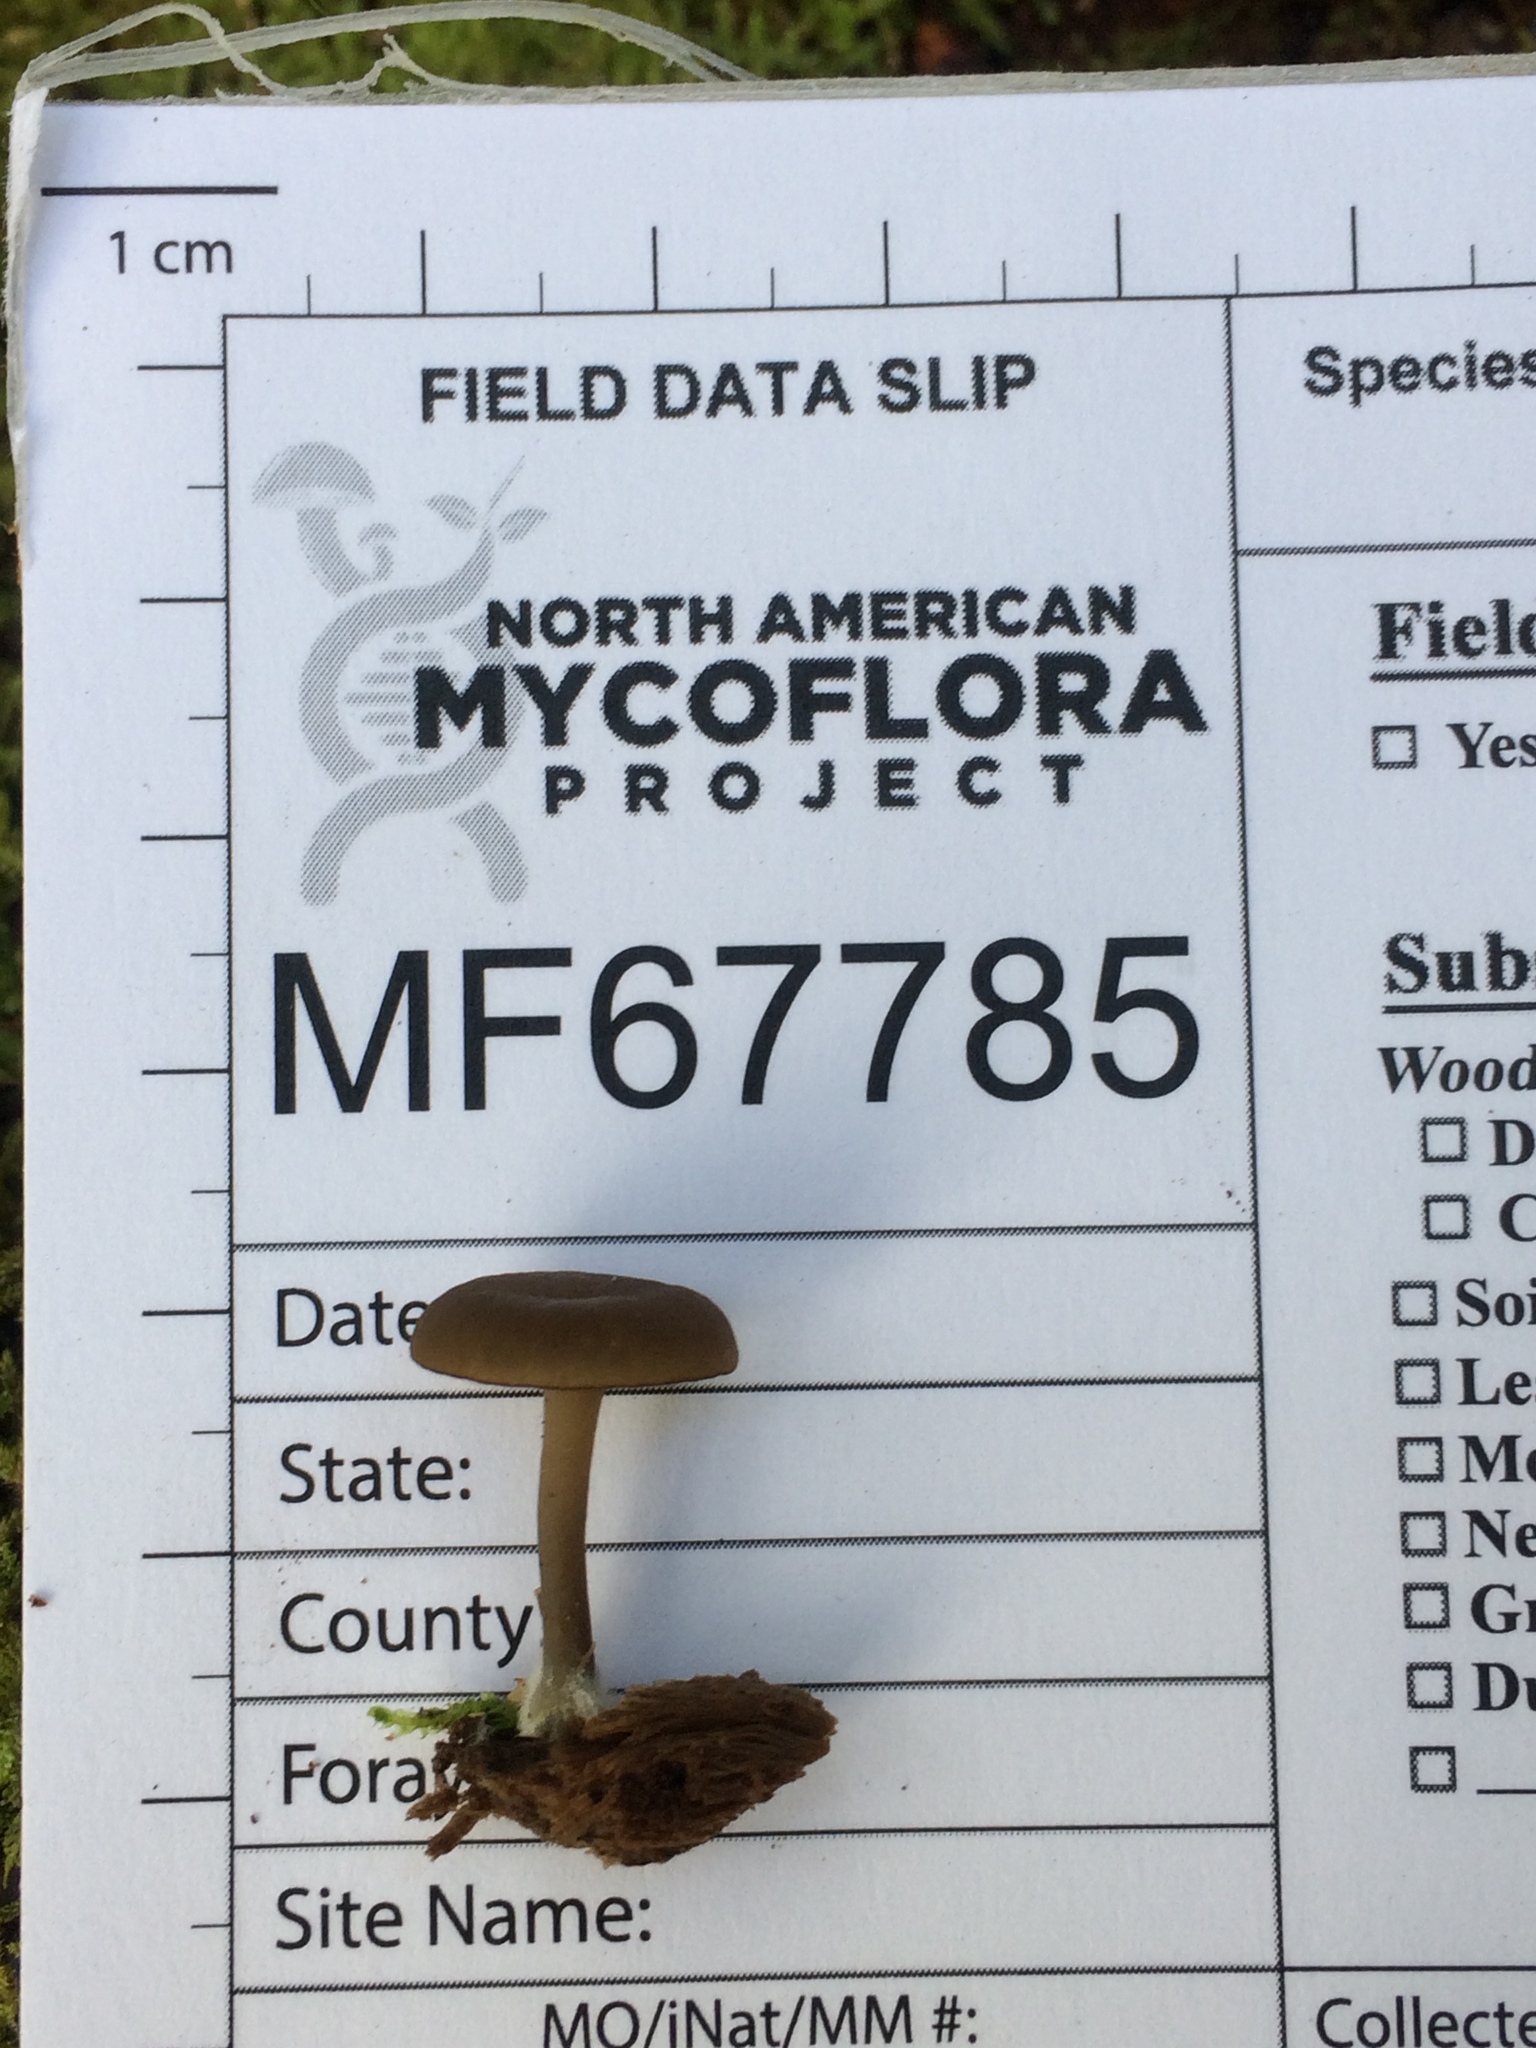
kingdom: Fungi
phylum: Basidiomycota
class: Agaricomycetes
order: Agaricales
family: Hygrophoraceae
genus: Arrhenia
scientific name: Arrhenia epichysium
